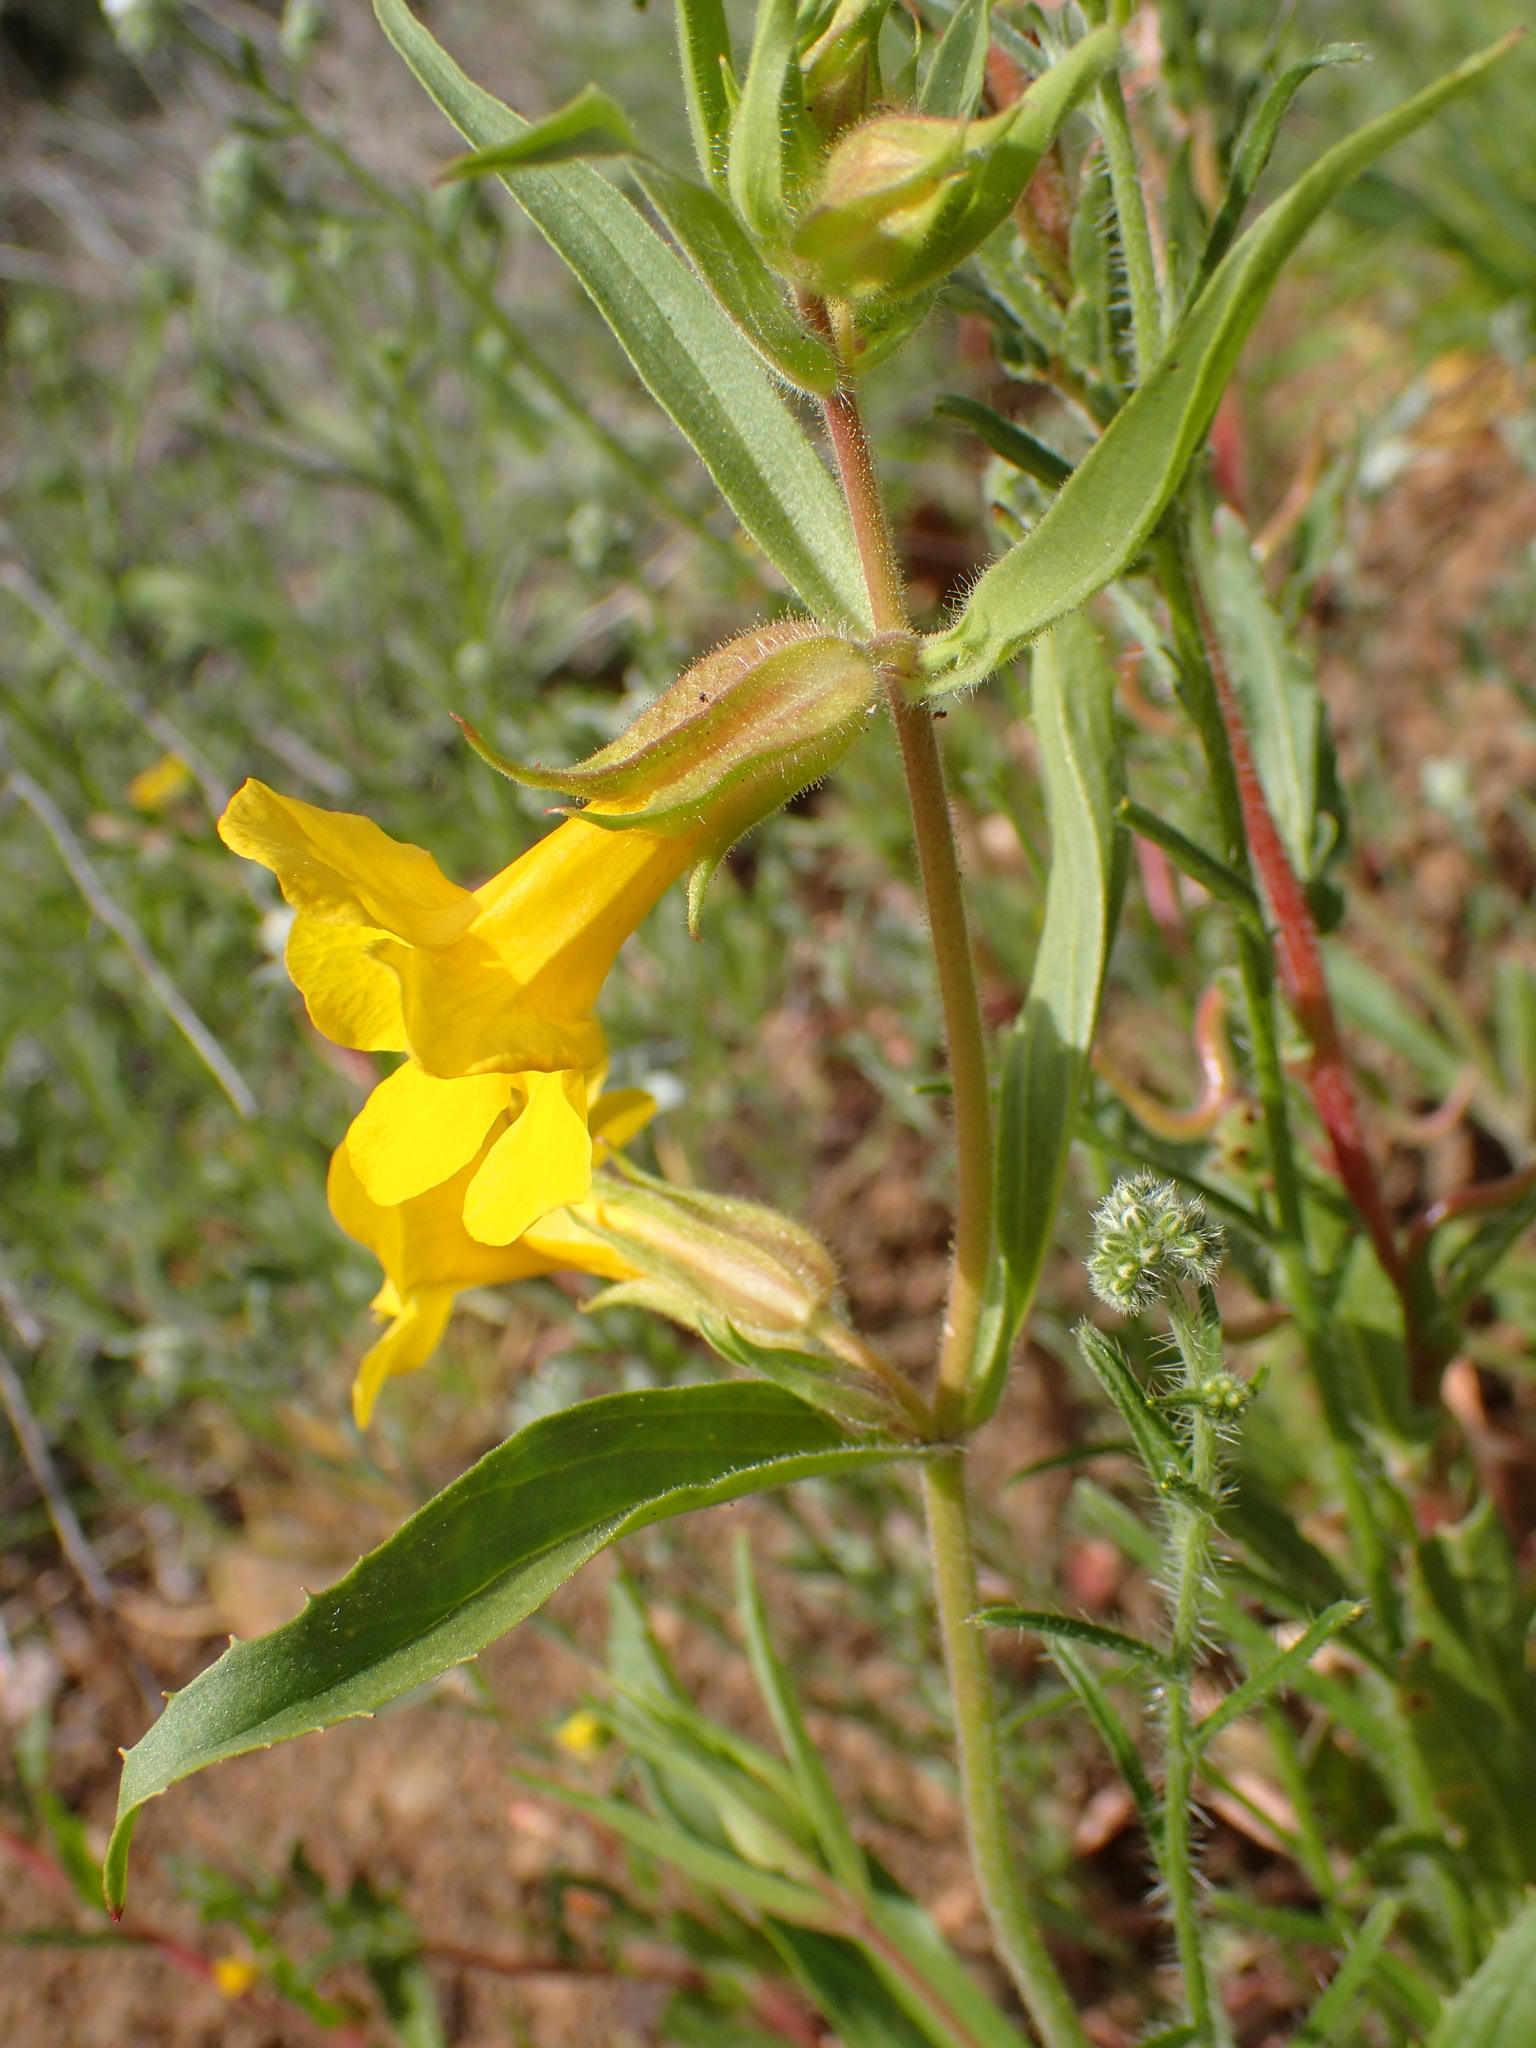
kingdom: Plantae
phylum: Tracheophyta
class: Magnoliopsida
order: Lamiales
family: Phrymaceae
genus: Diplacus
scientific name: Diplacus brevipes
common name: Wide-throat yellow monkey-flower
